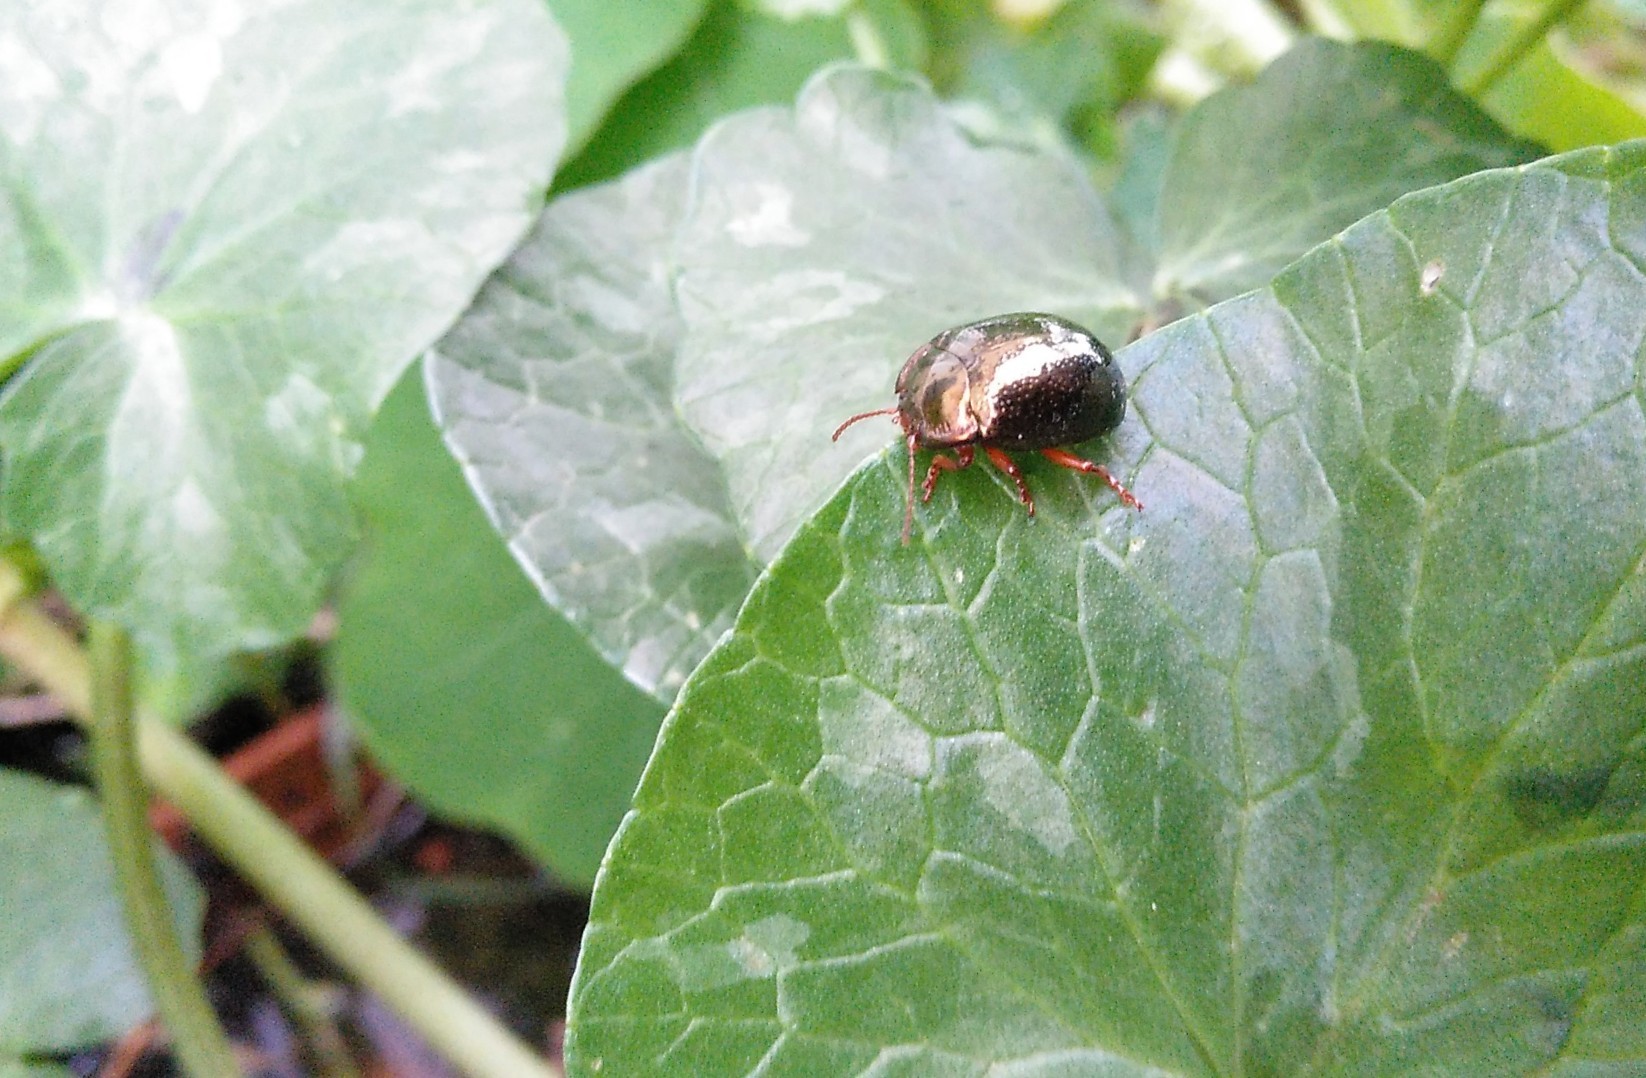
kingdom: Animalia
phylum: Arthropoda
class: Insecta
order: Coleoptera
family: Chrysomelidae
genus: Chrysolina
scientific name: Chrysolina bankii
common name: Leaf beetle
